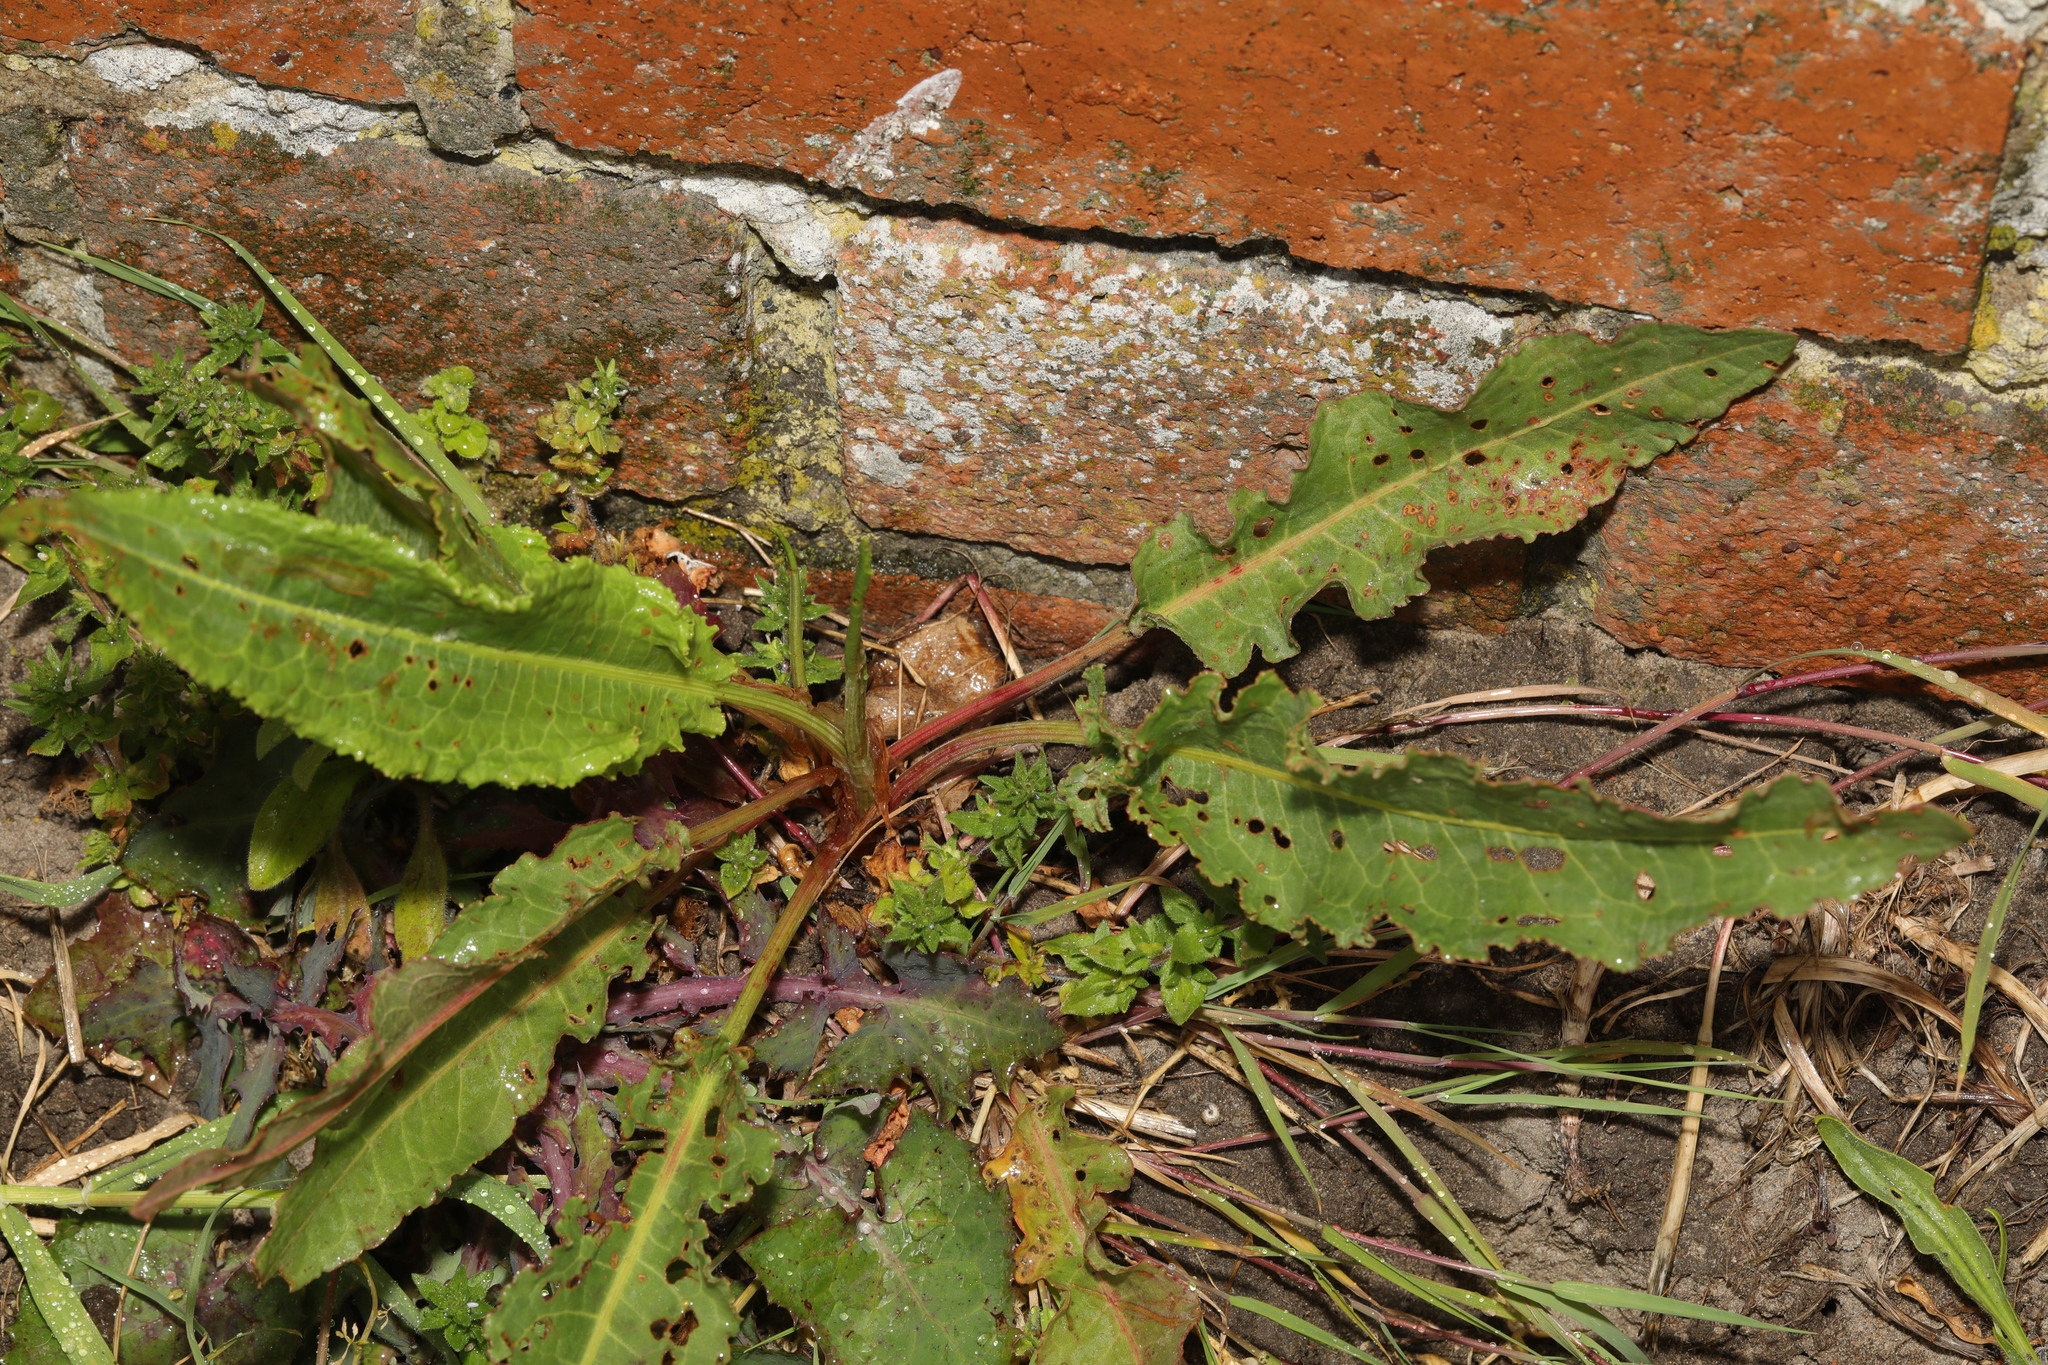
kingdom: Plantae
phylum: Tracheophyta
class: Magnoliopsida
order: Caryophyllales
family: Polygonaceae
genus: Rumex
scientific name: Rumex crispus
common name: Curled dock
